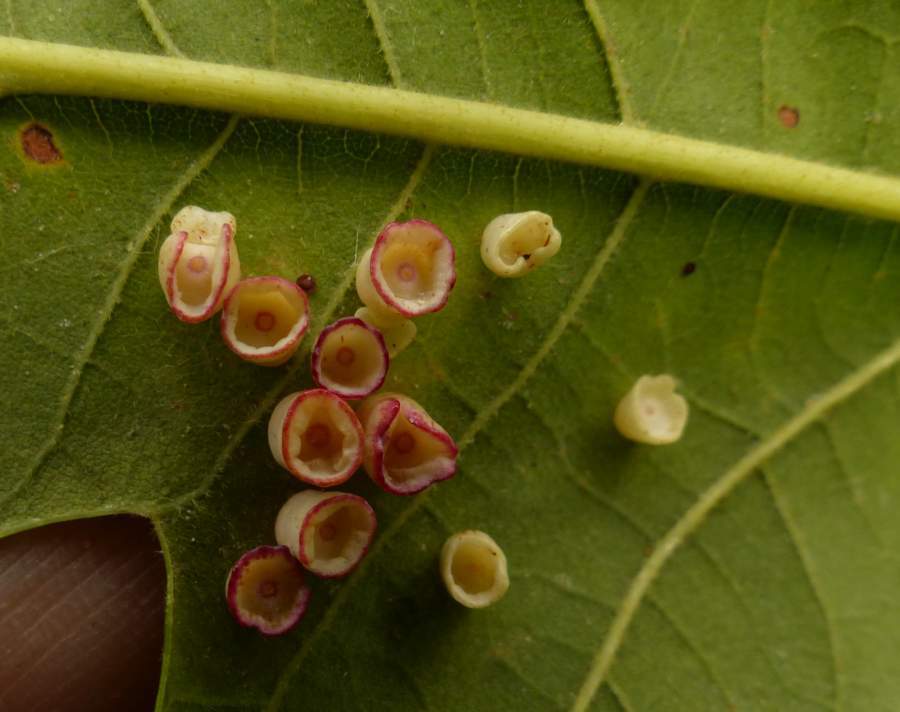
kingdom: Animalia
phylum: Arthropoda
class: Insecta
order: Hymenoptera
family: Cynipidae
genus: Phylloteras
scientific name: Phylloteras
